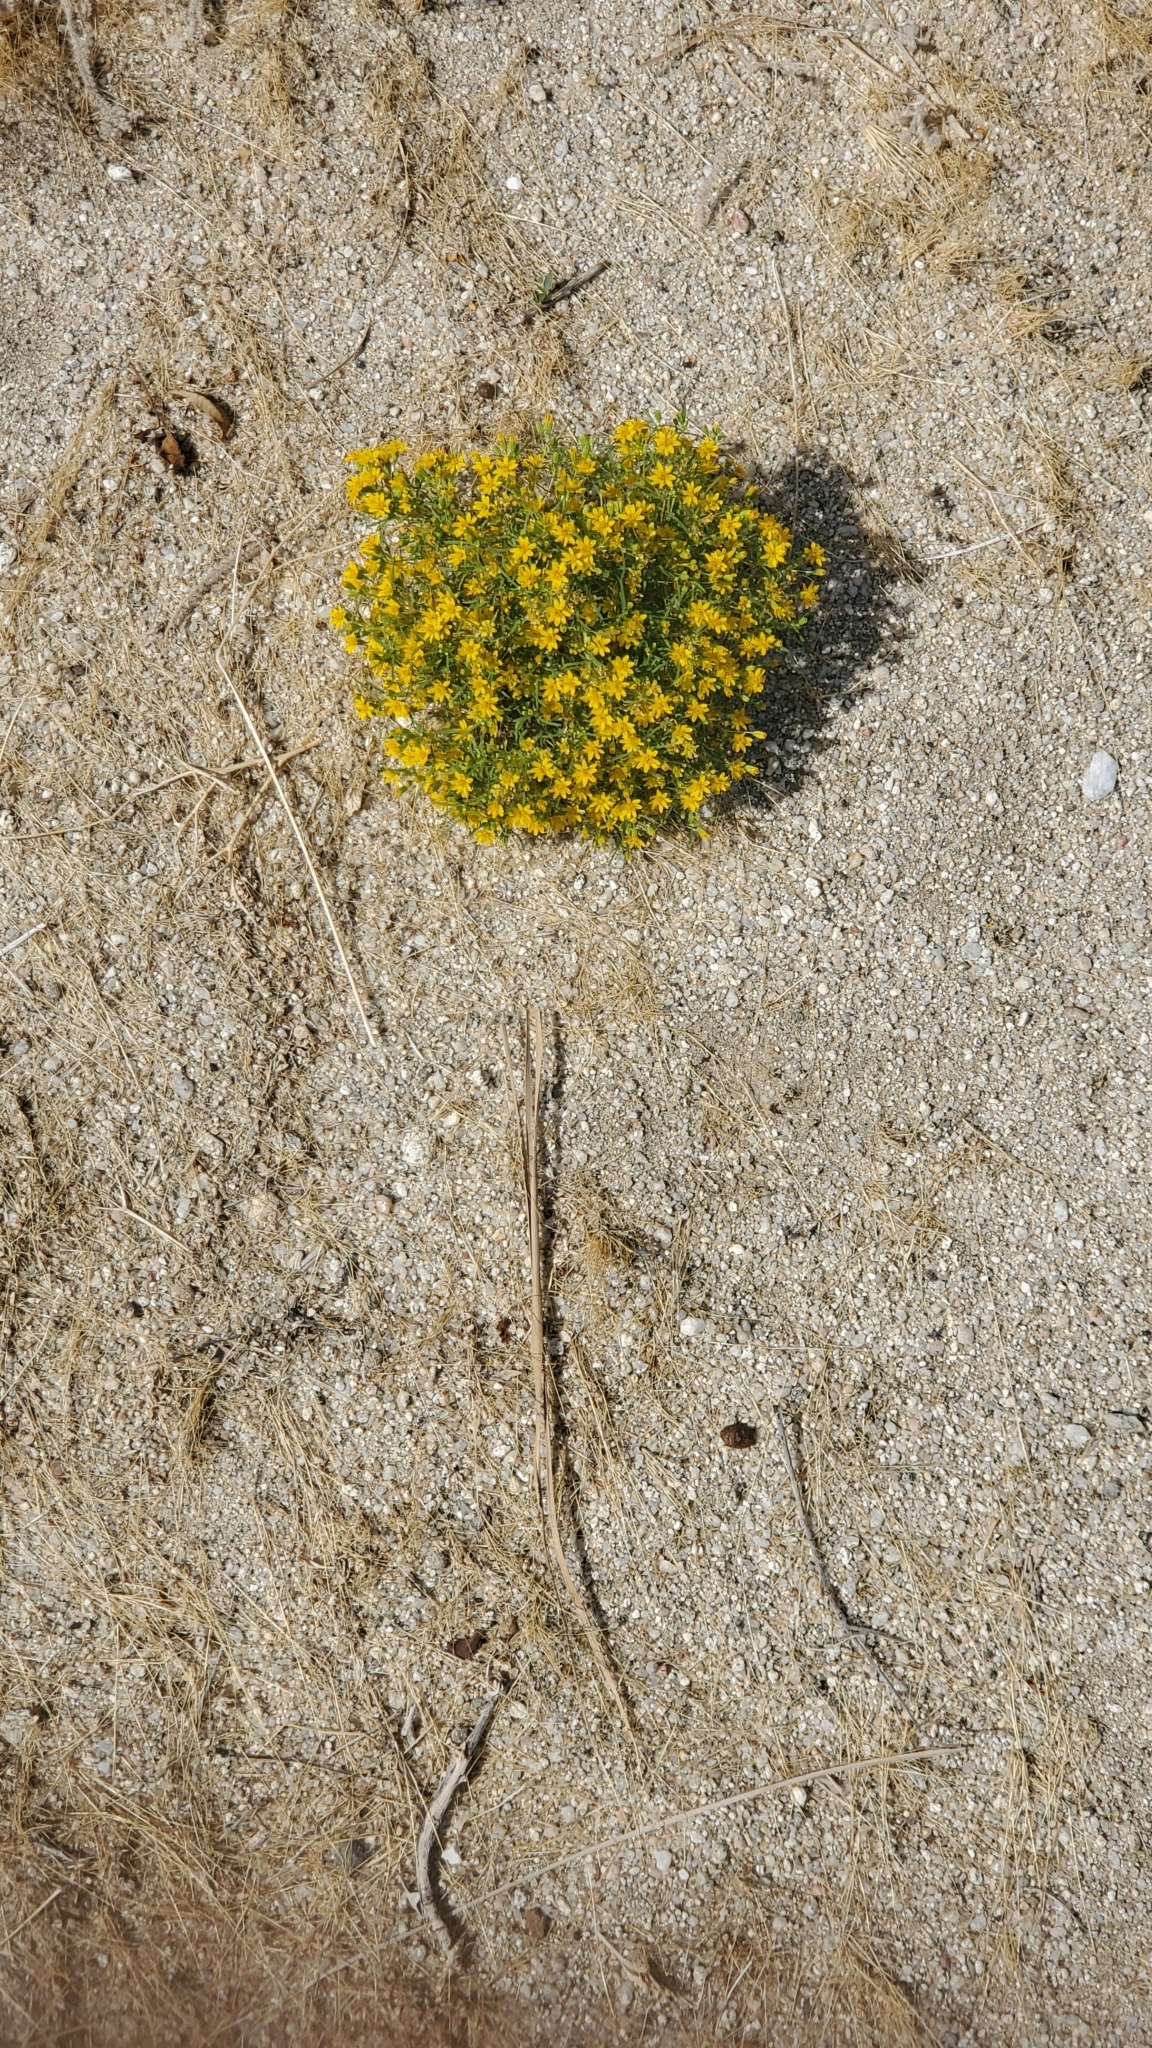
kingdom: Plantae
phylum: Tracheophyta
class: Magnoliopsida
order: Asterales
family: Asteraceae
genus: Pectis
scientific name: Pectis papposa
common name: Many-bristle chinchweed
